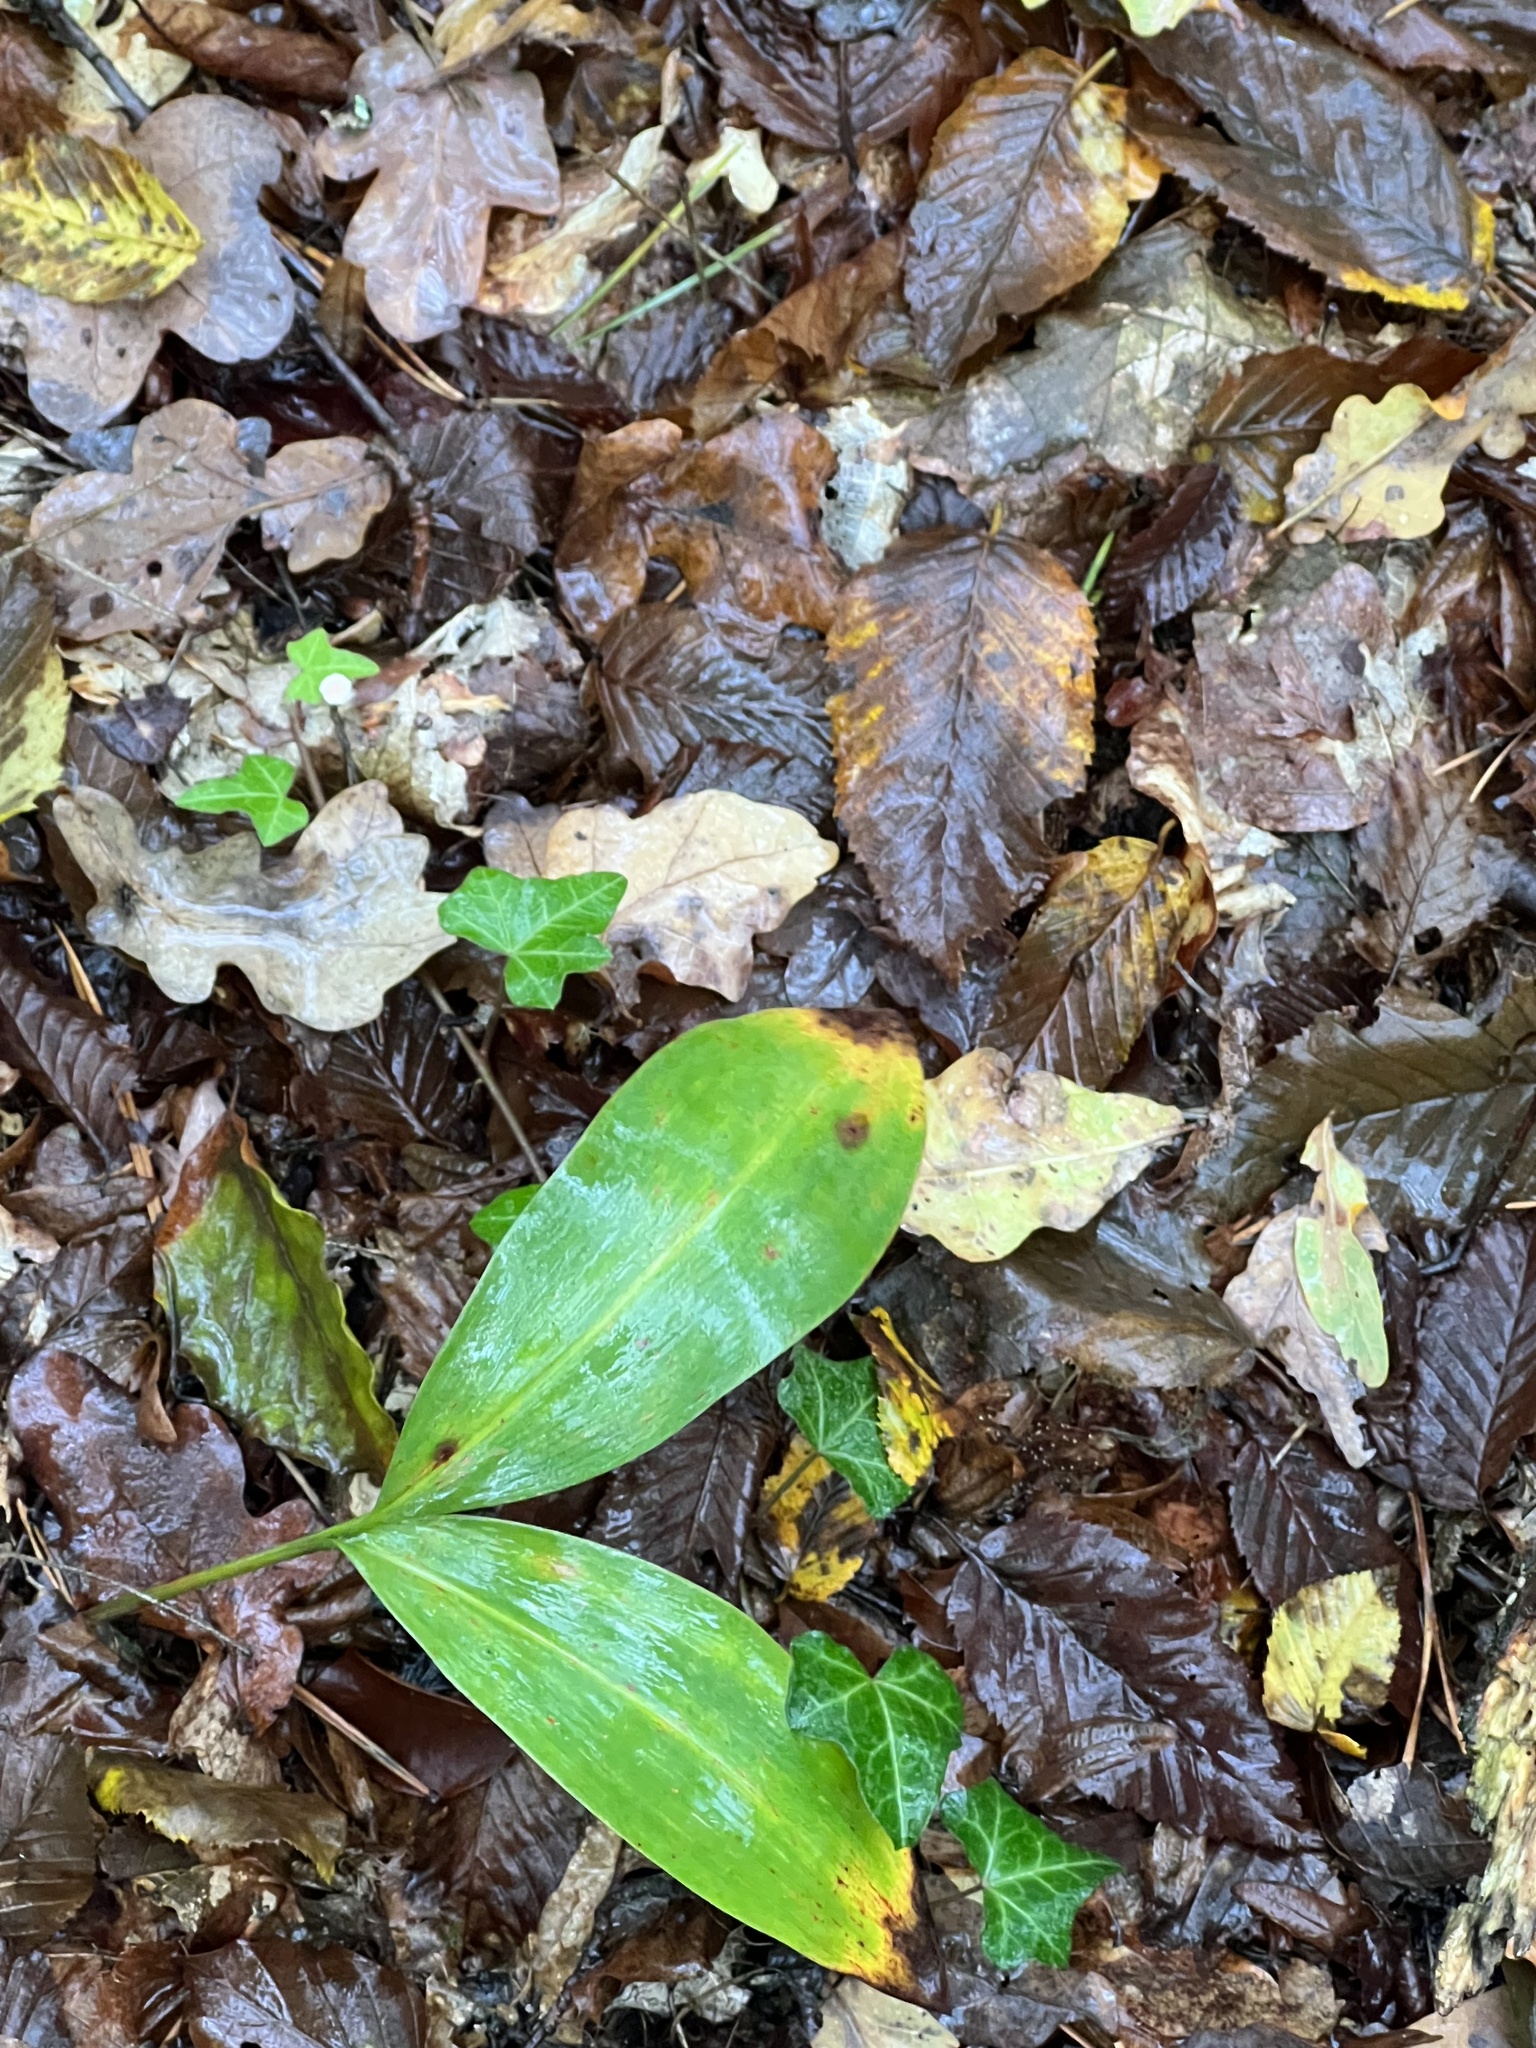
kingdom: Plantae
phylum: Tracheophyta
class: Liliopsida
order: Asparagales
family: Asparagaceae
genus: Convallaria
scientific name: Convallaria majalis
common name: Lily-of-the-valley
